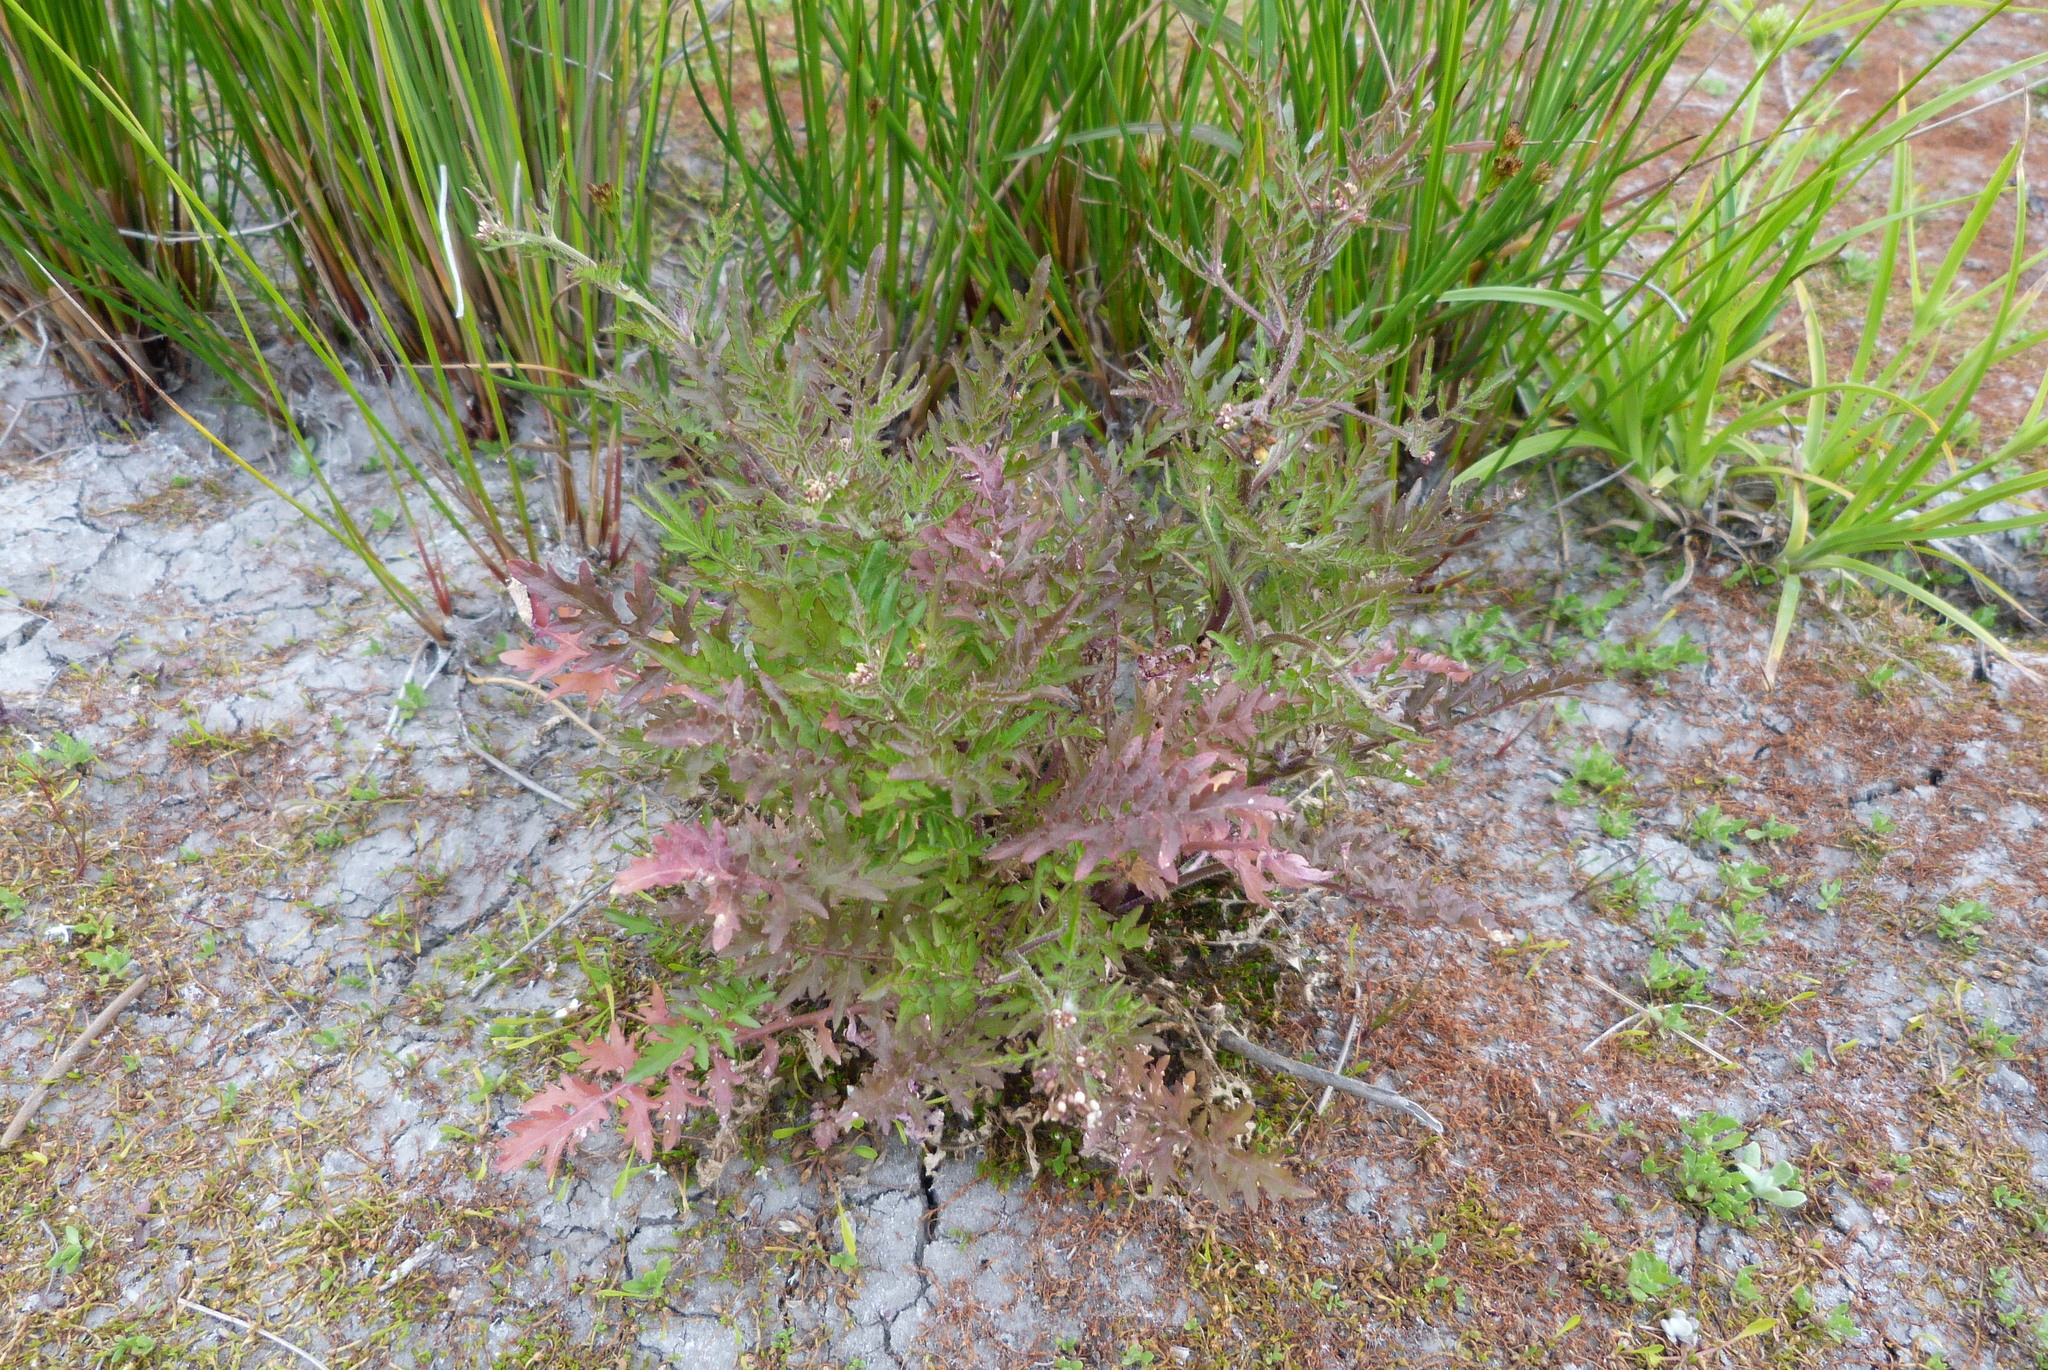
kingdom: Plantae
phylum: Tracheophyta
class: Magnoliopsida
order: Brassicales
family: Brassicaceae
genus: Rorippa
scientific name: Rorippa palustris
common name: Marsh yellow-cress
